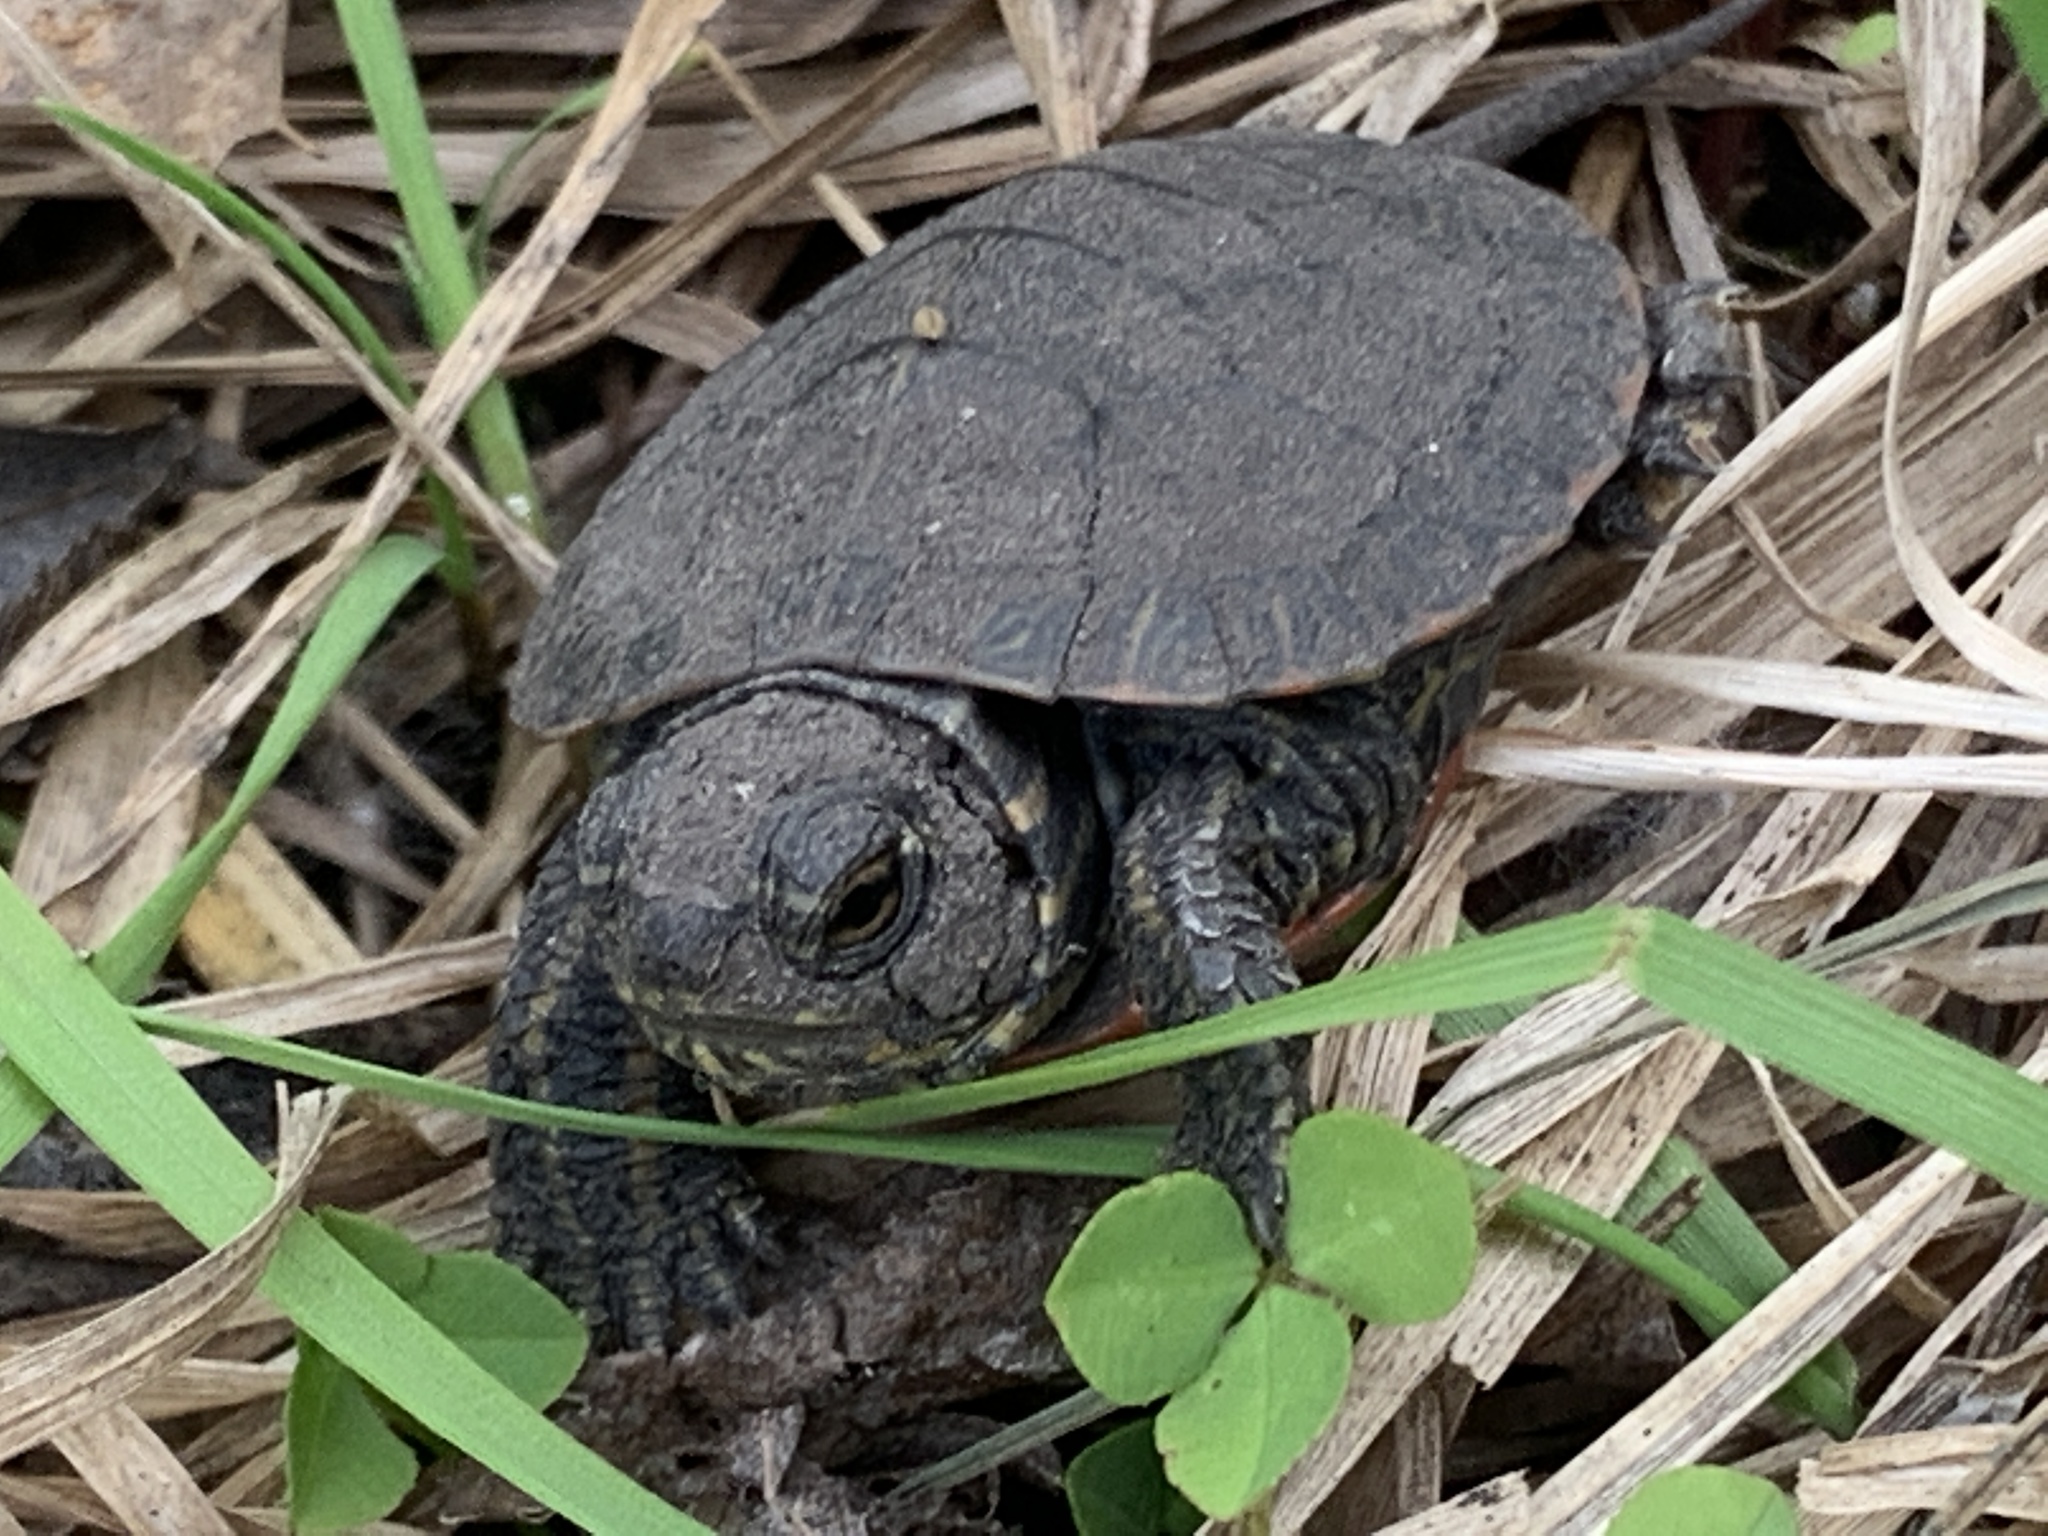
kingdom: Animalia
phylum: Chordata
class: Testudines
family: Emydidae
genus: Chrysemys
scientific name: Chrysemys picta
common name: Painted turtle
